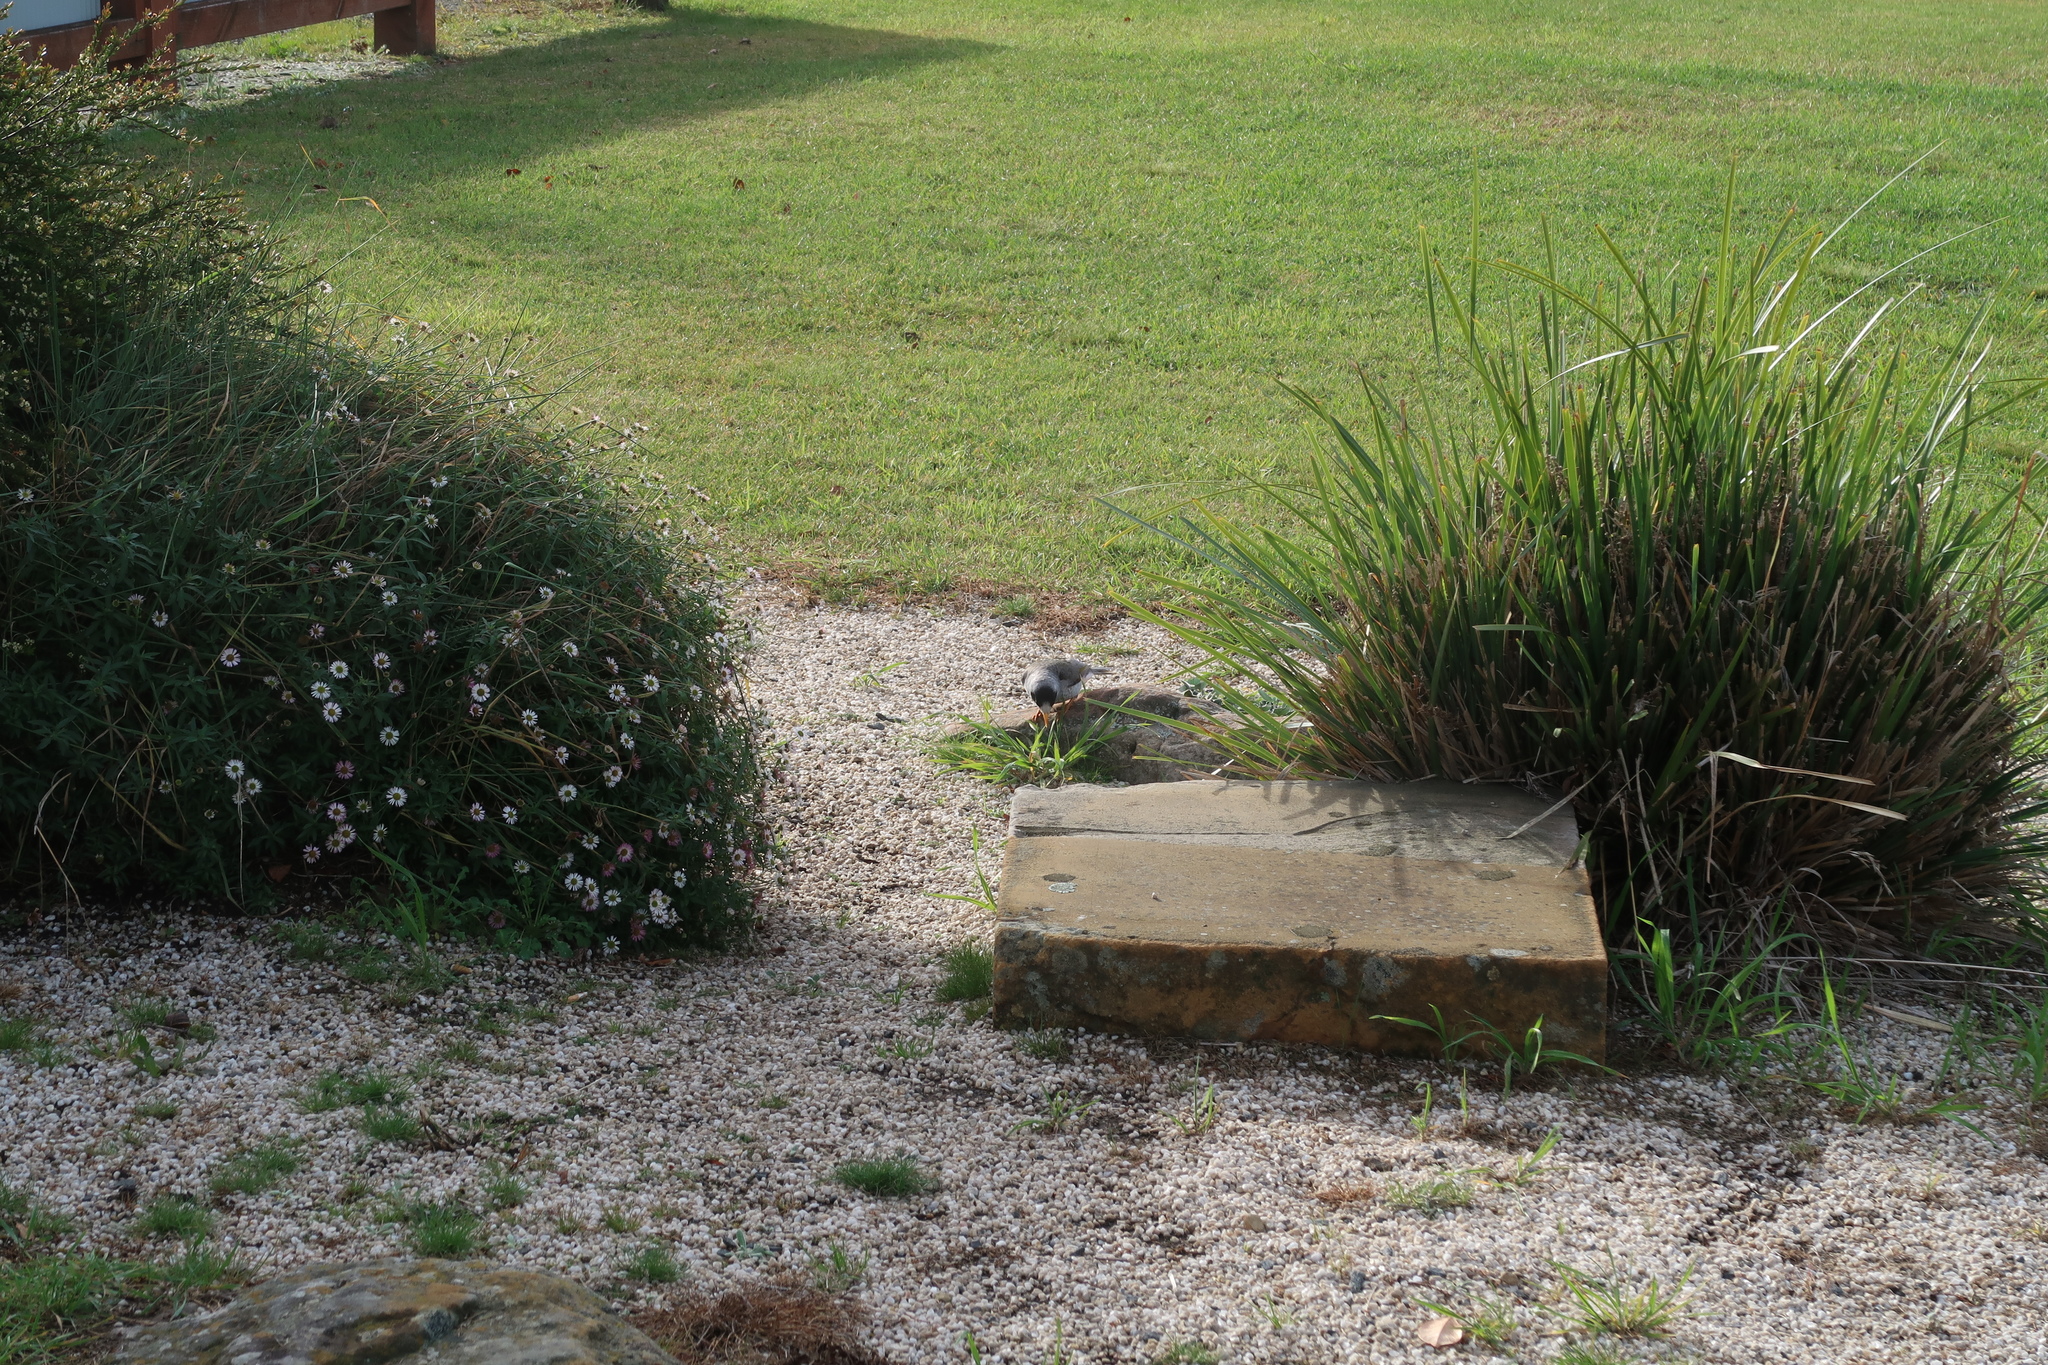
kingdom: Animalia
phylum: Chordata
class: Aves
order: Passeriformes
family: Meliphagidae
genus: Manorina
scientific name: Manorina melanocephala
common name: Noisy miner
